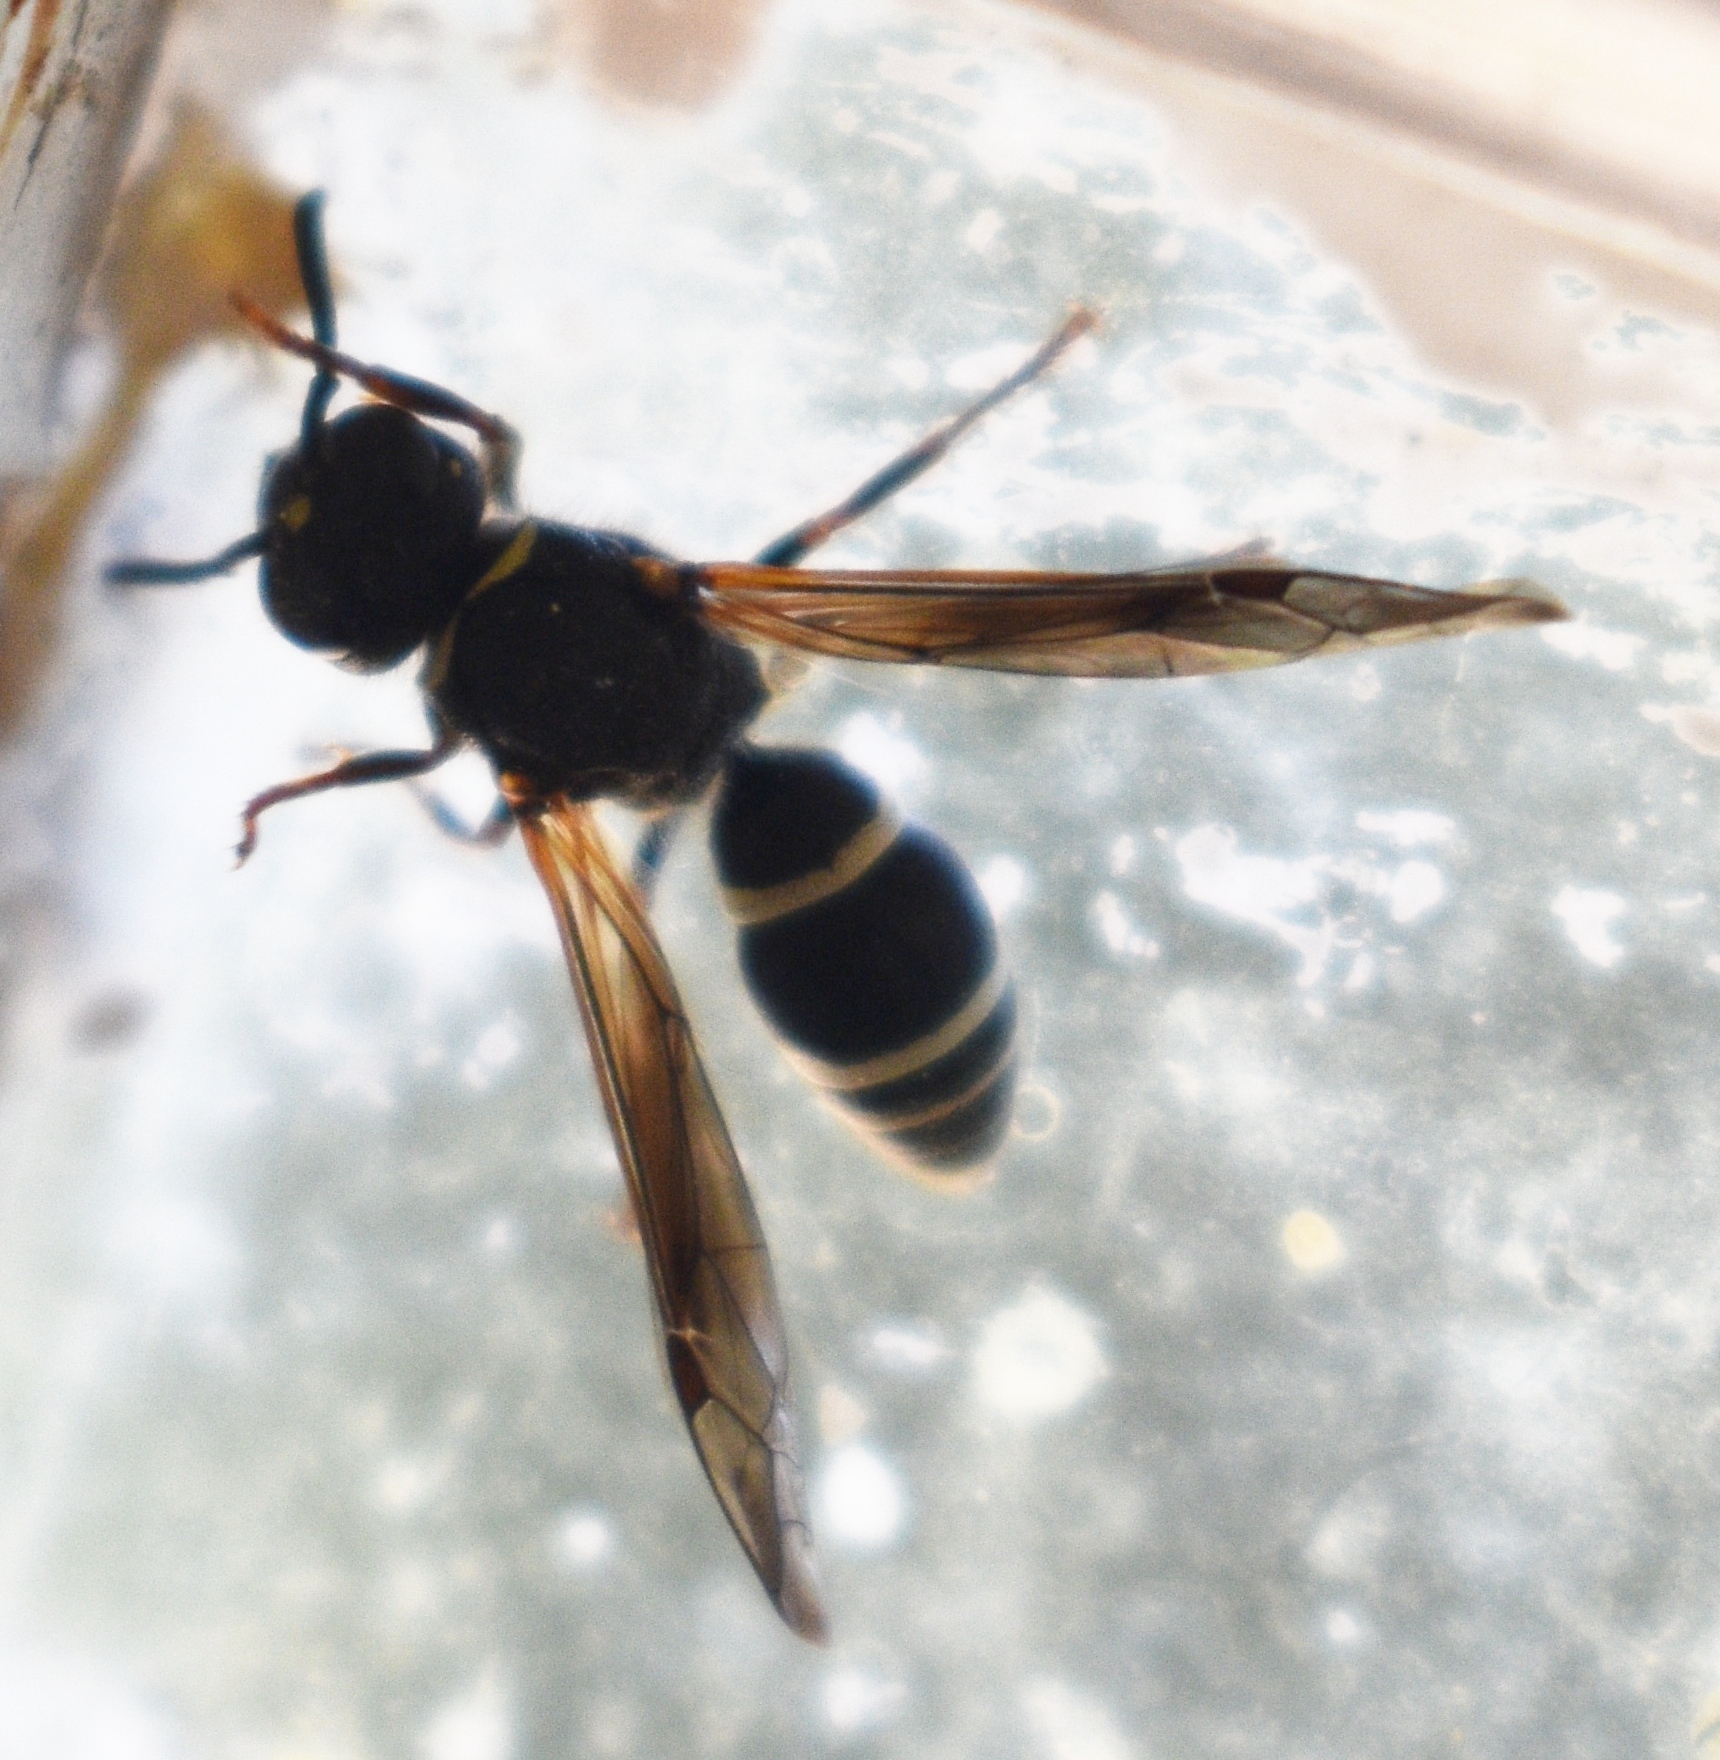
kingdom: Animalia
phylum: Arthropoda
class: Insecta
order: Hymenoptera
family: Vespidae
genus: Ancistrocerus
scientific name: Ancistrocerus
